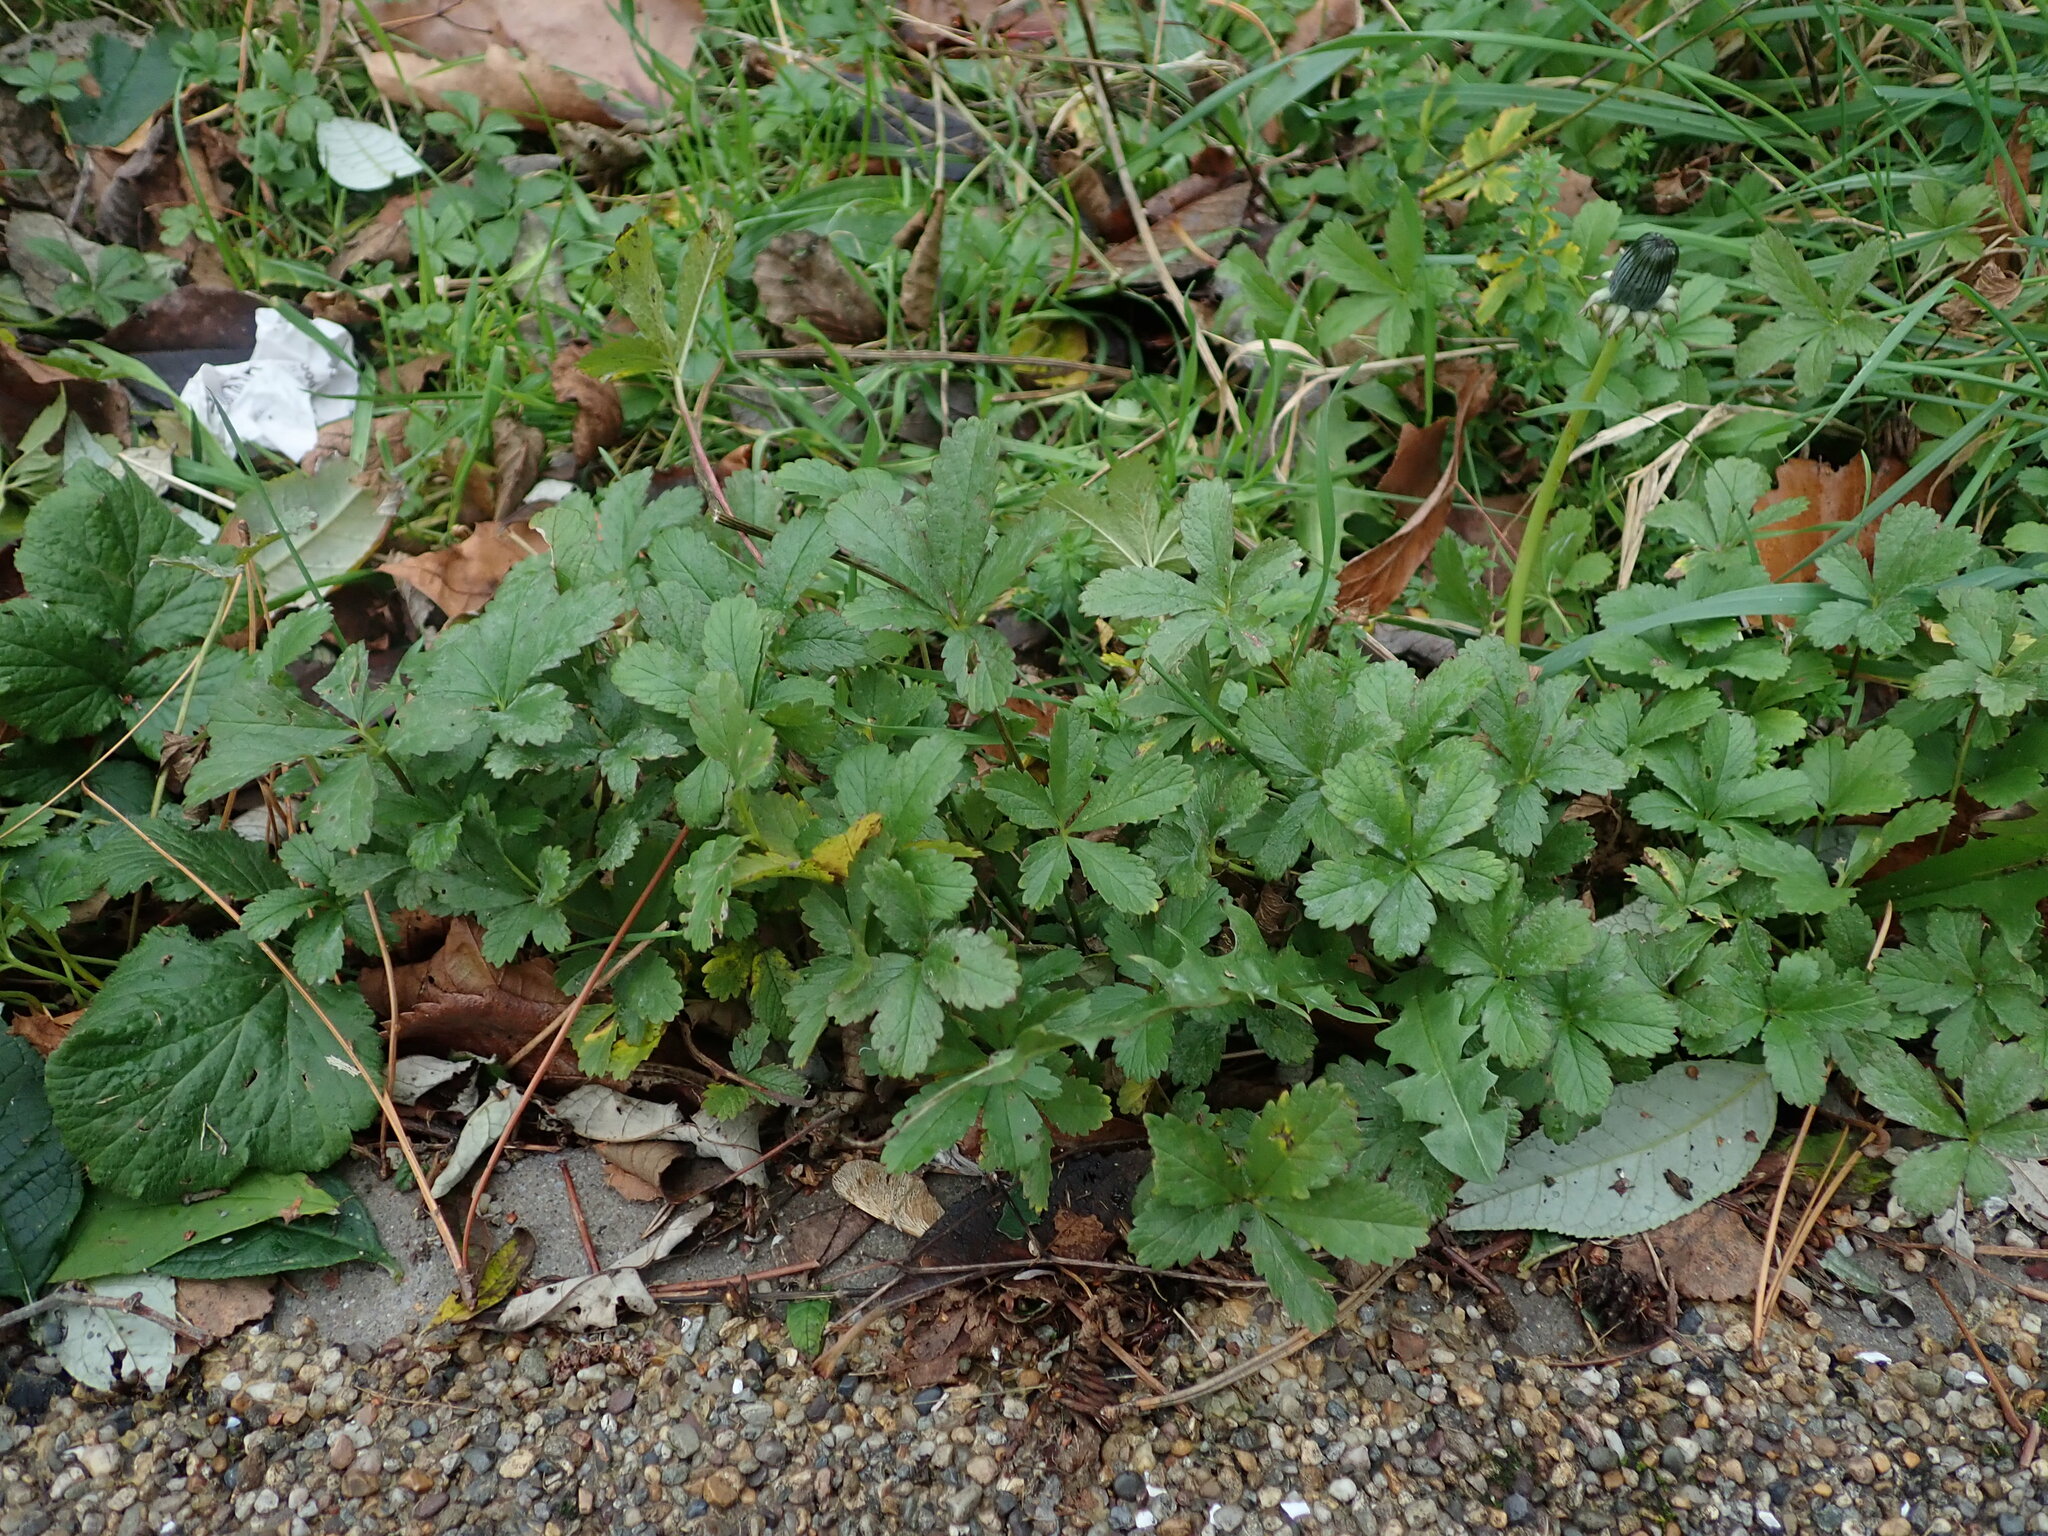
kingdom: Plantae
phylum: Tracheophyta
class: Magnoliopsida
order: Rosales
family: Rosaceae
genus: Potentilla
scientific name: Potentilla reptans
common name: Creeping cinquefoil
